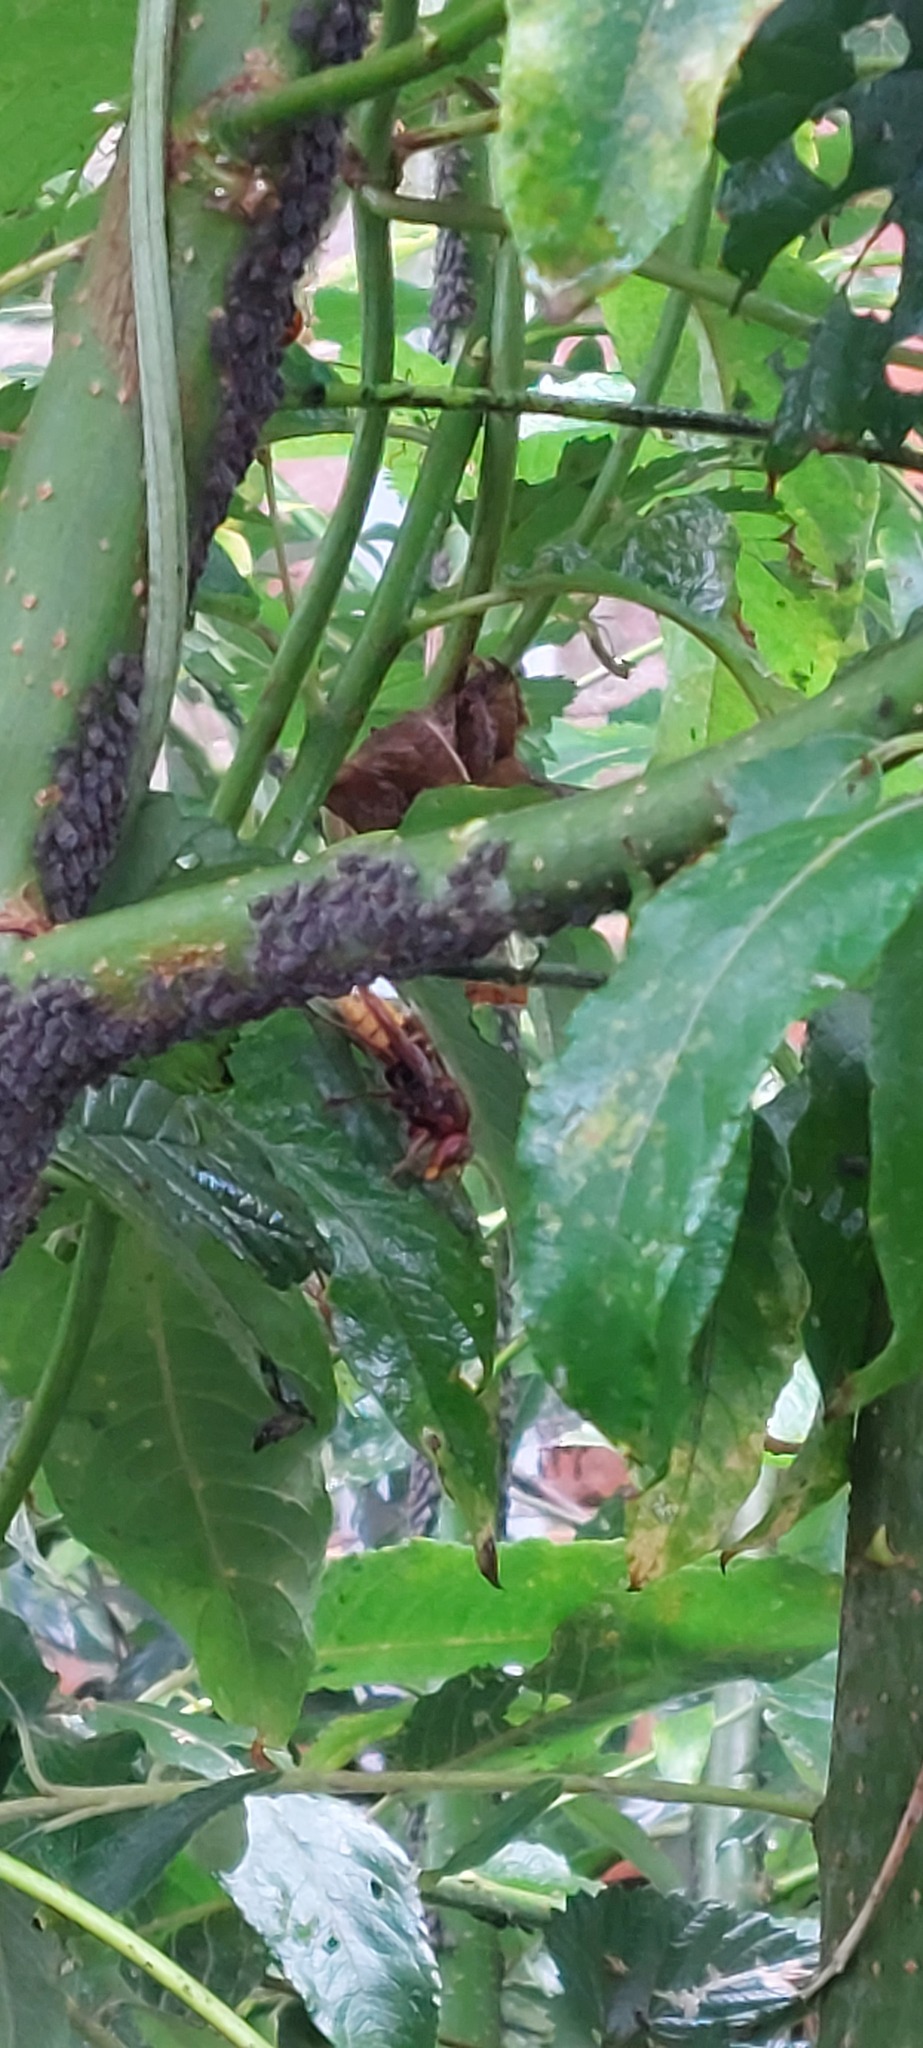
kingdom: Animalia
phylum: Arthropoda
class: Insecta
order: Hymenoptera
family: Vespidae
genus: Vespa
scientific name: Vespa crabro
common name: Hornet
